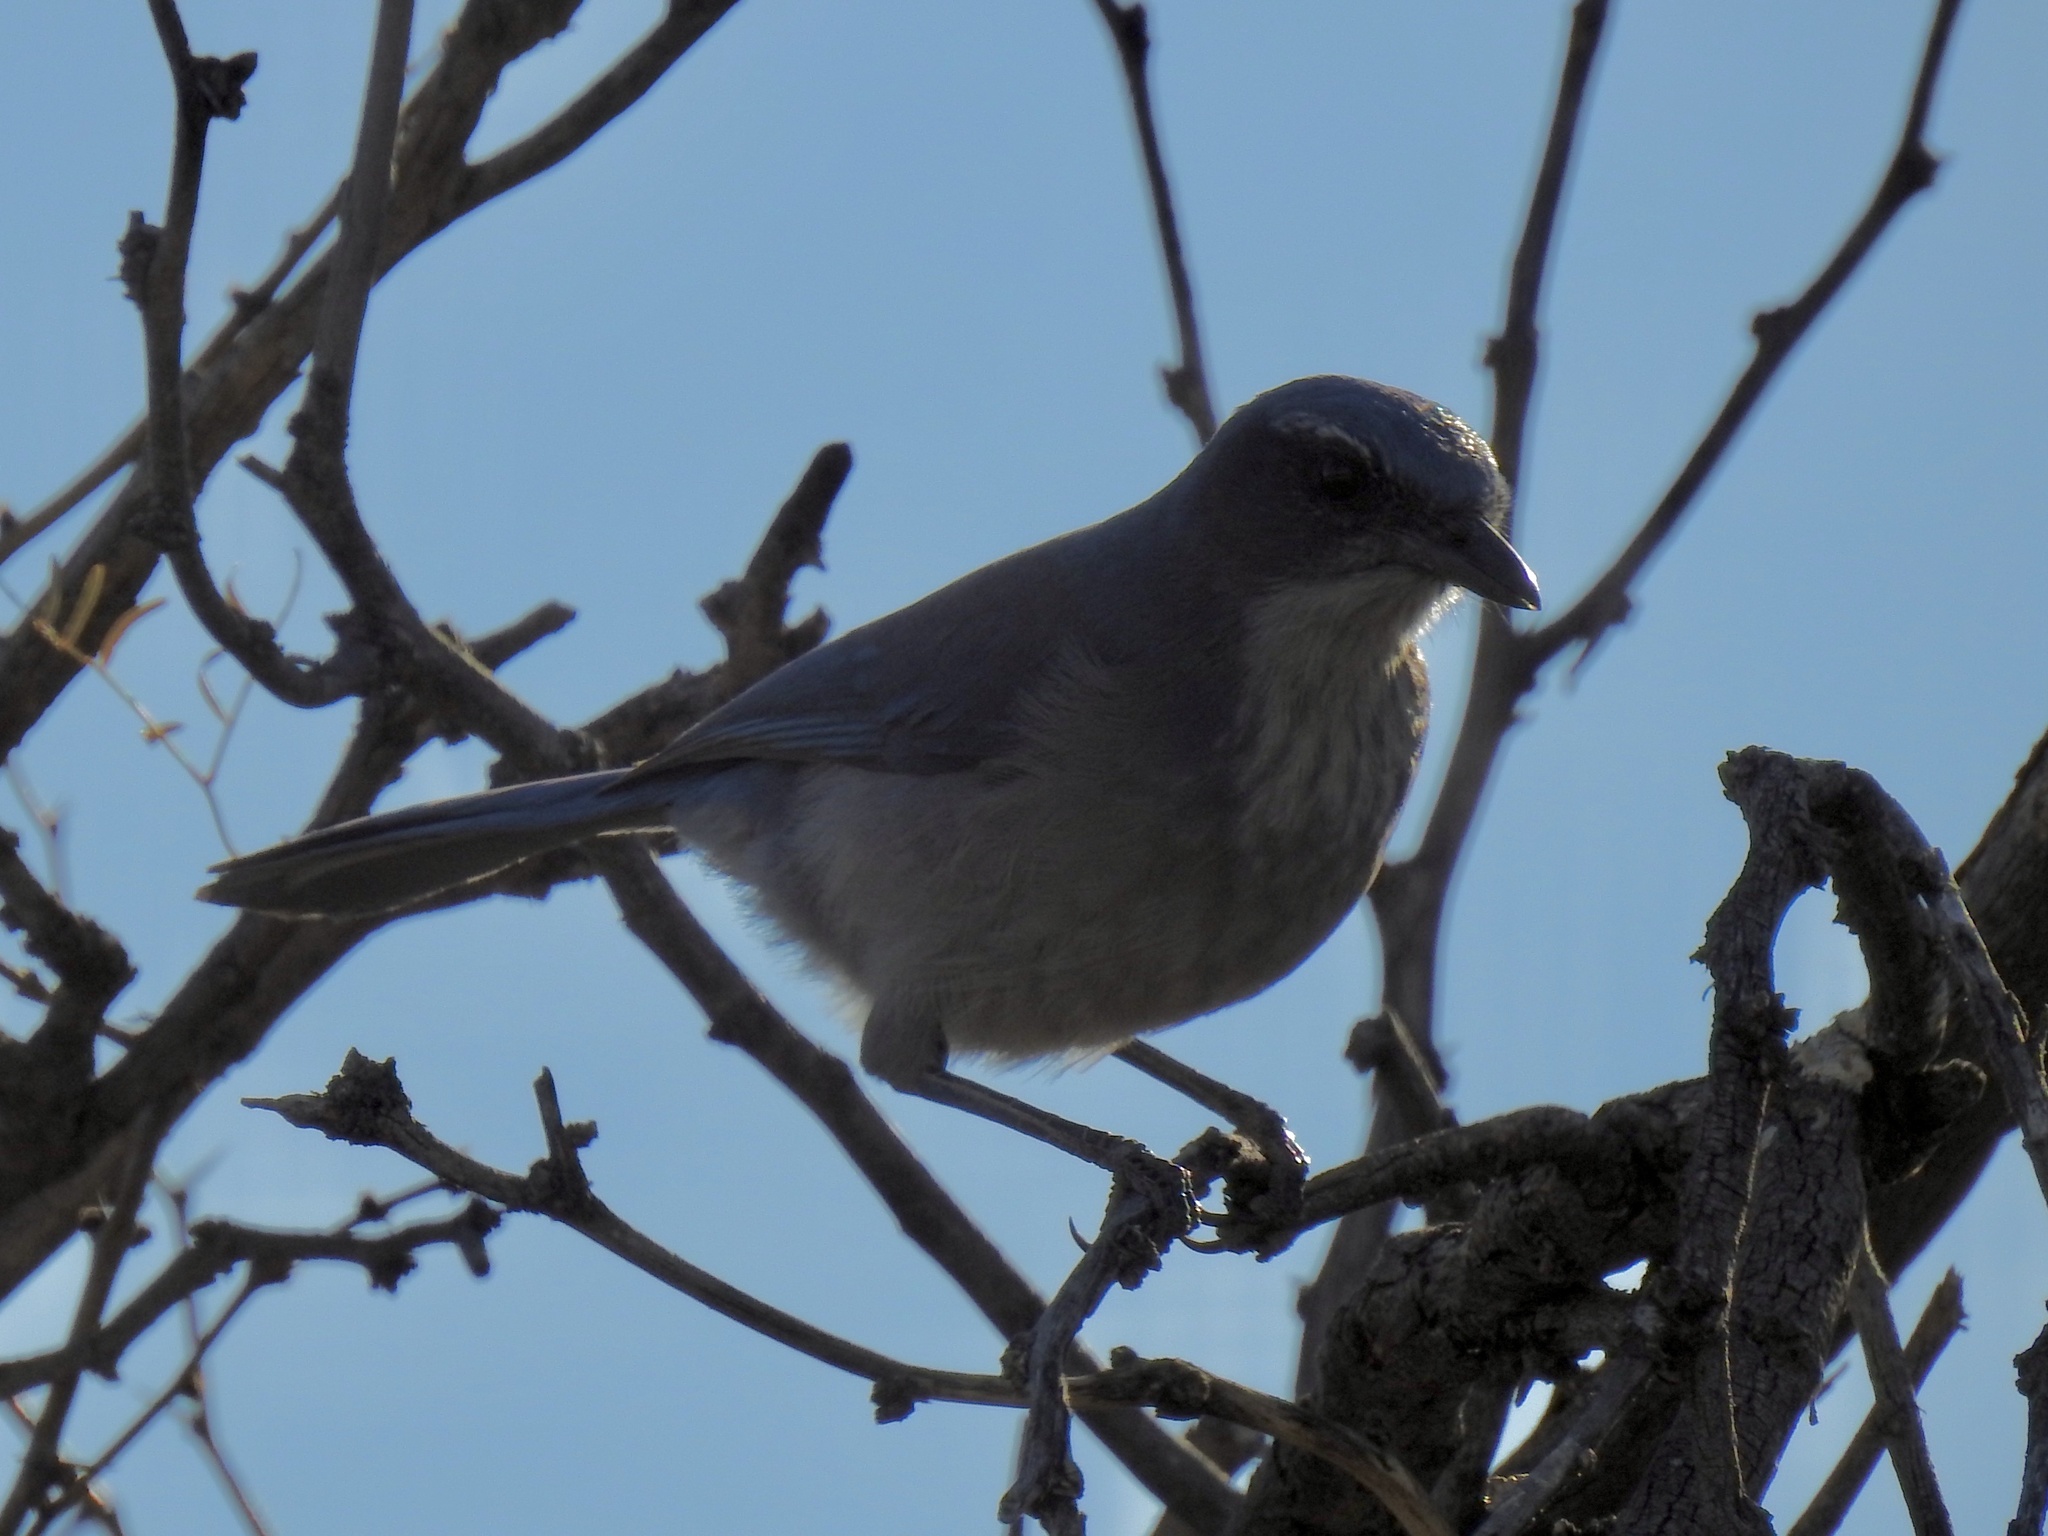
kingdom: Animalia
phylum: Chordata
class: Aves
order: Passeriformes
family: Corvidae
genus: Aphelocoma
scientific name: Aphelocoma woodhouseii
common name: Woodhouse's scrub-jay
